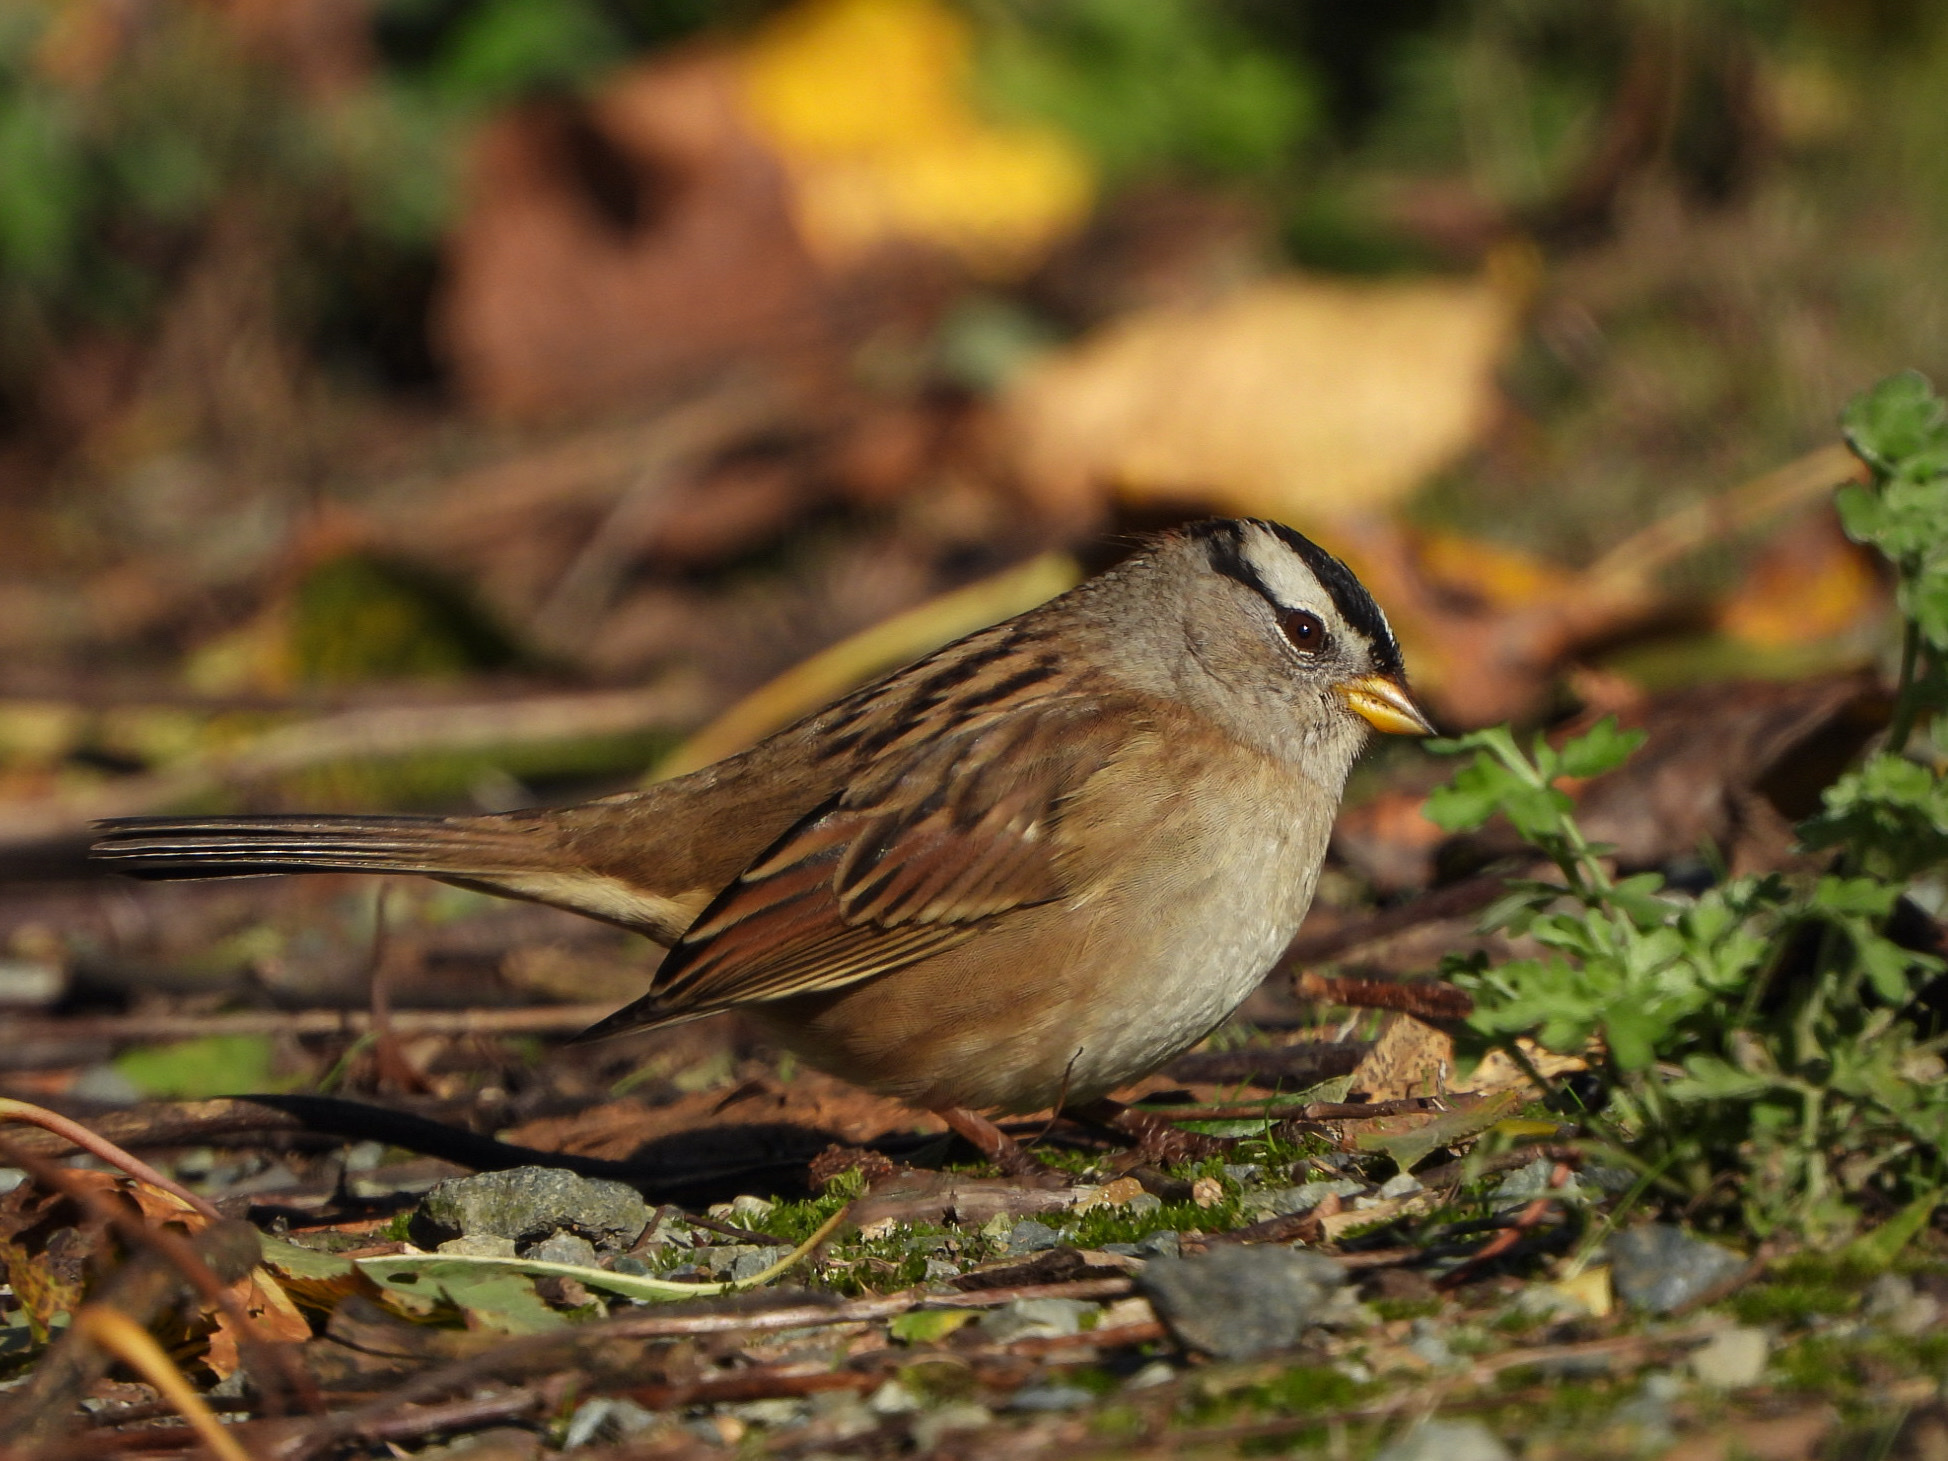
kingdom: Animalia
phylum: Chordata
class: Aves
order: Passeriformes
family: Passerellidae
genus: Zonotrichia
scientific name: Zonotrichia leucophrys
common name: White-crowned sparrow
